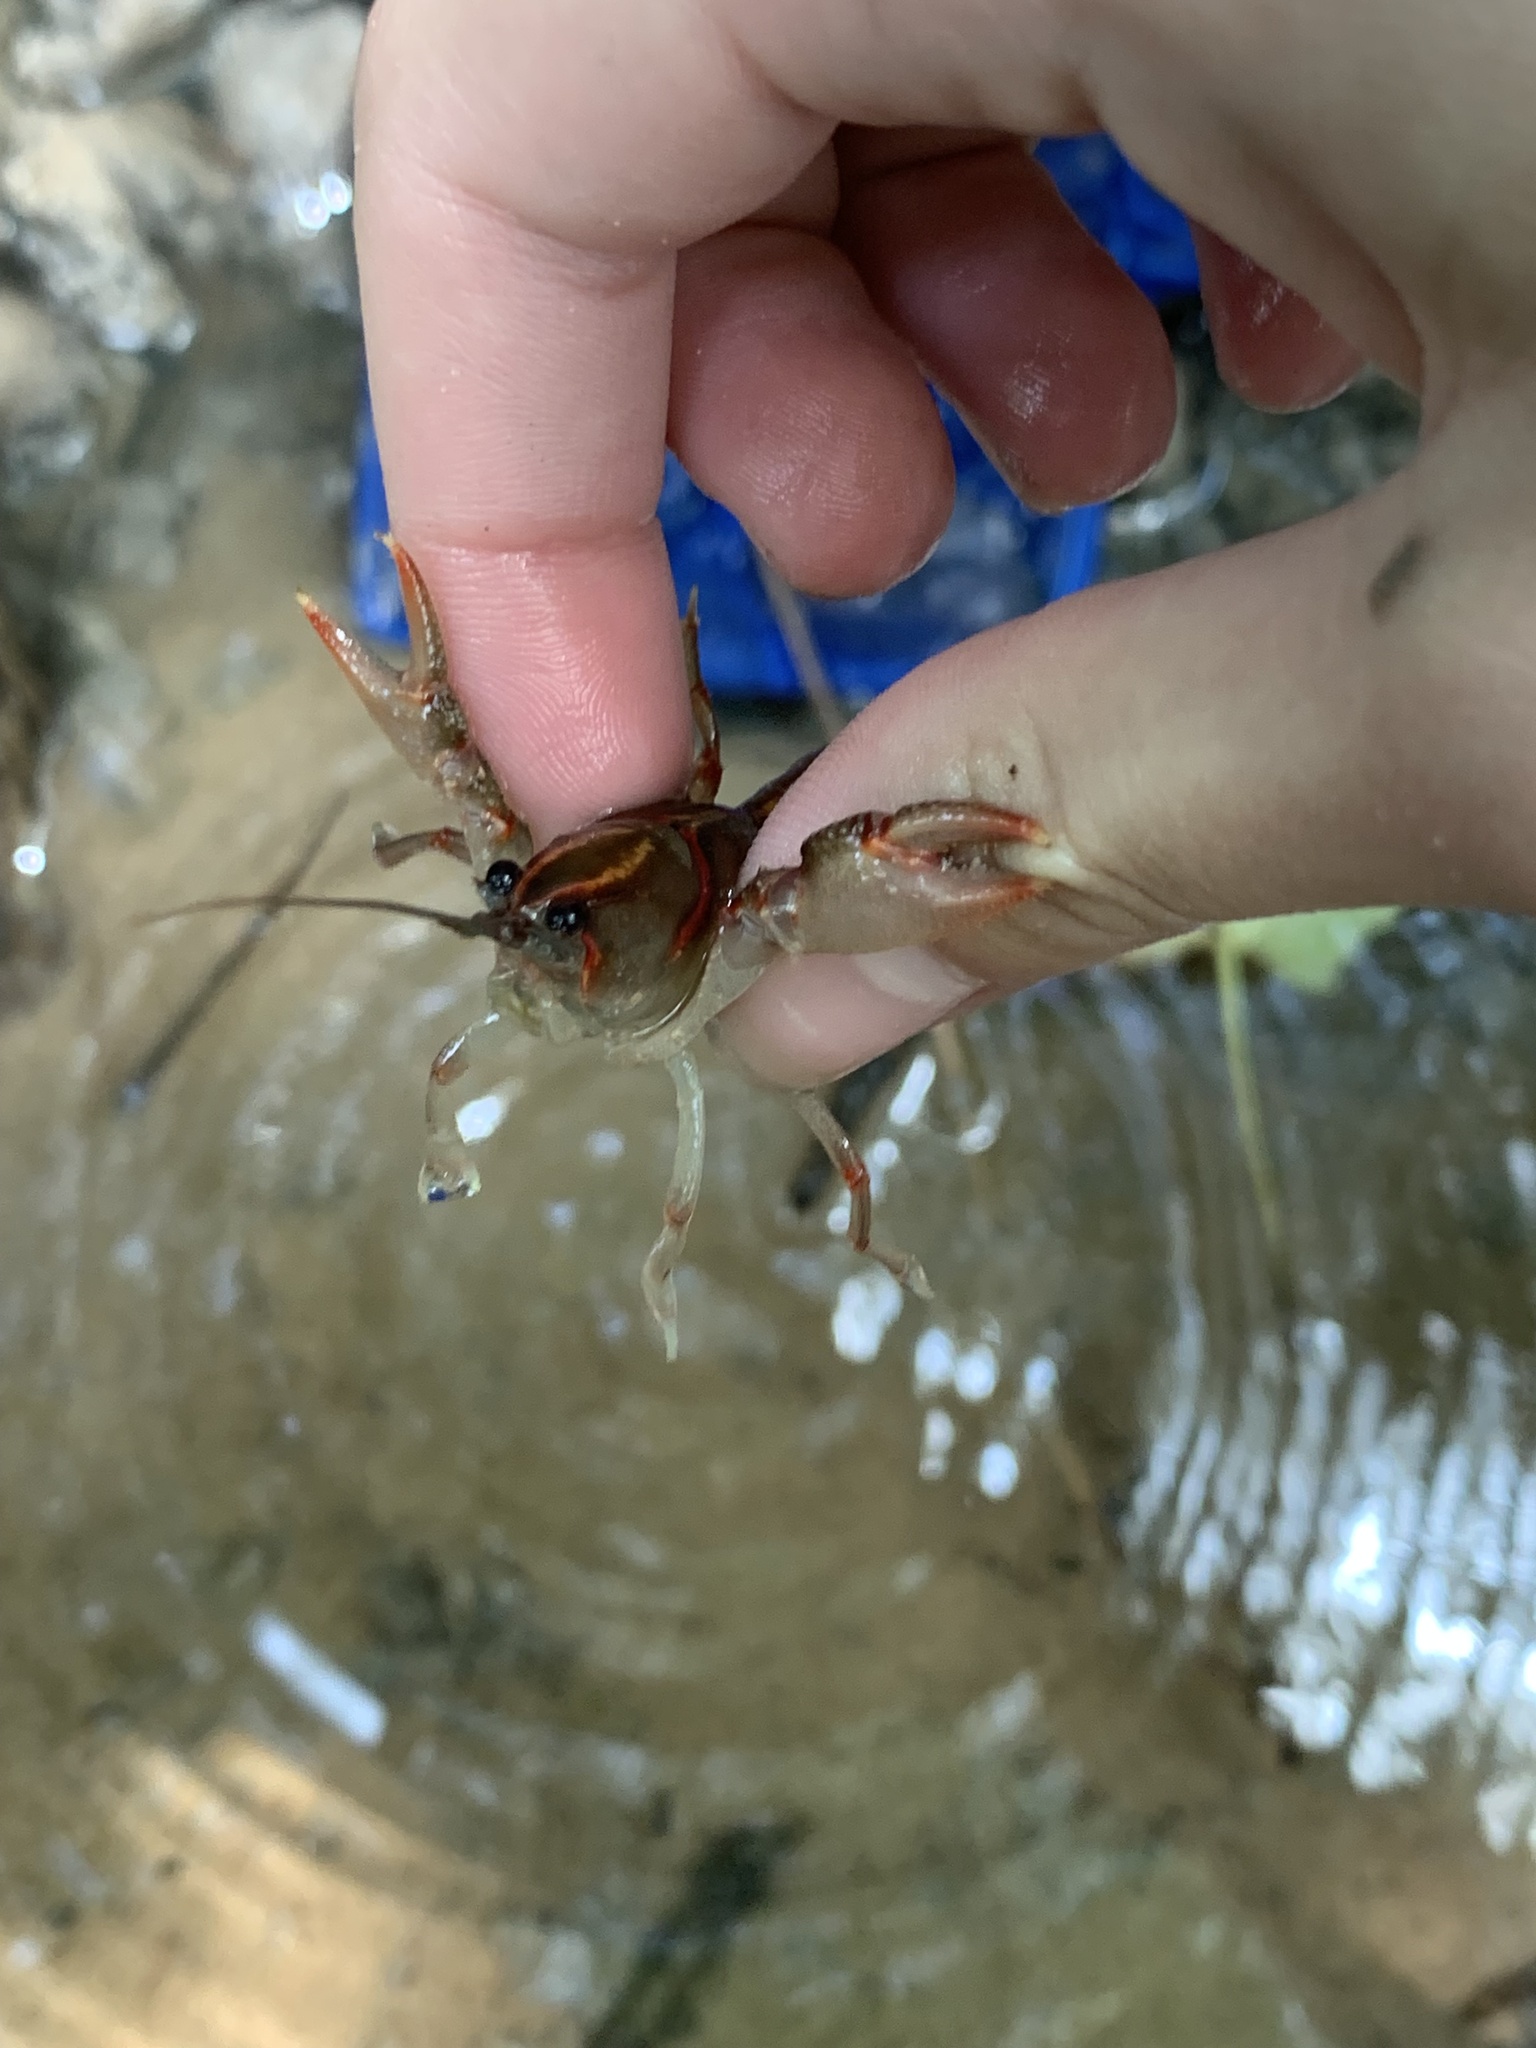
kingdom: Animalia
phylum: Arthropoda
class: Malacostraca
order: Decapoda
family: Cambaridae
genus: Lacunicambarus
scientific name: Lacunicambarus ludovicianus
